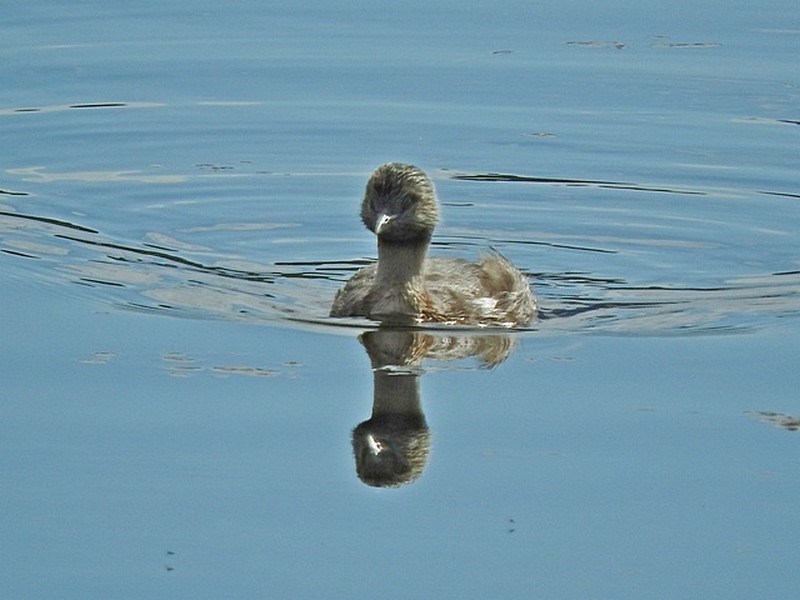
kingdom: Animalia
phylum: Chordata
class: Aves
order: Podicipediformes
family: Podicipedidae
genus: Poliocephalus
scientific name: Poliocephalus poliocephalus
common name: Hoary-headed grebe
